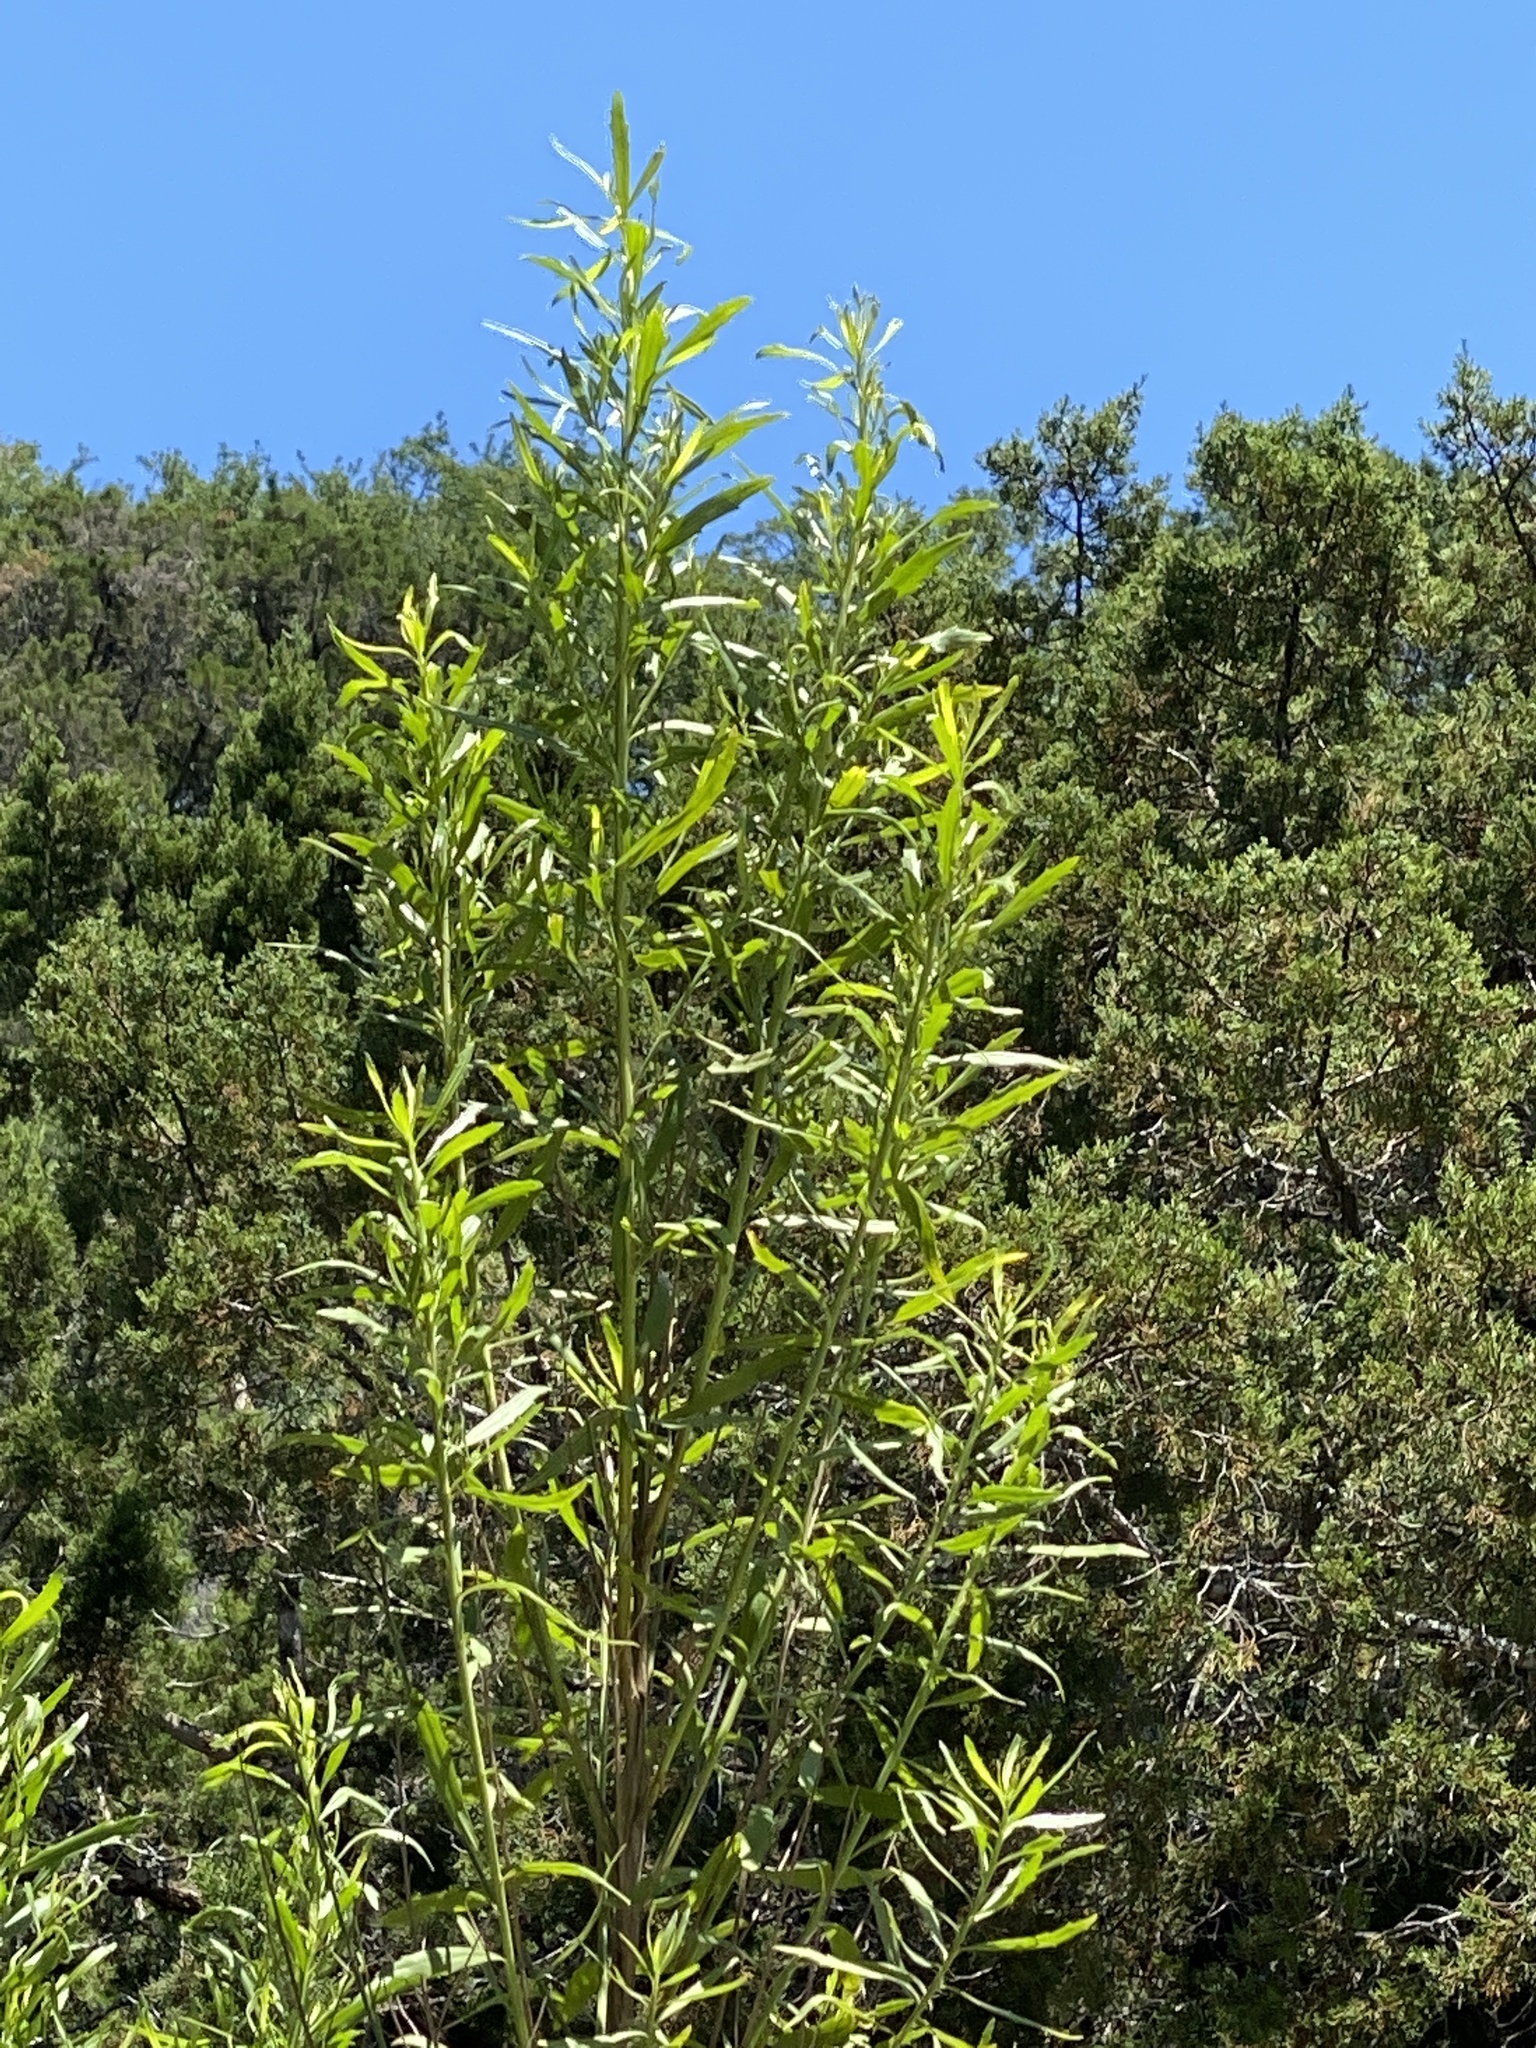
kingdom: Plantae
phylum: Tracheophyta
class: Magnoliopsida
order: Asterales
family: Asteraceae
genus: Baccharis
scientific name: Baccharis neglecta
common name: Roosevelt-weed
